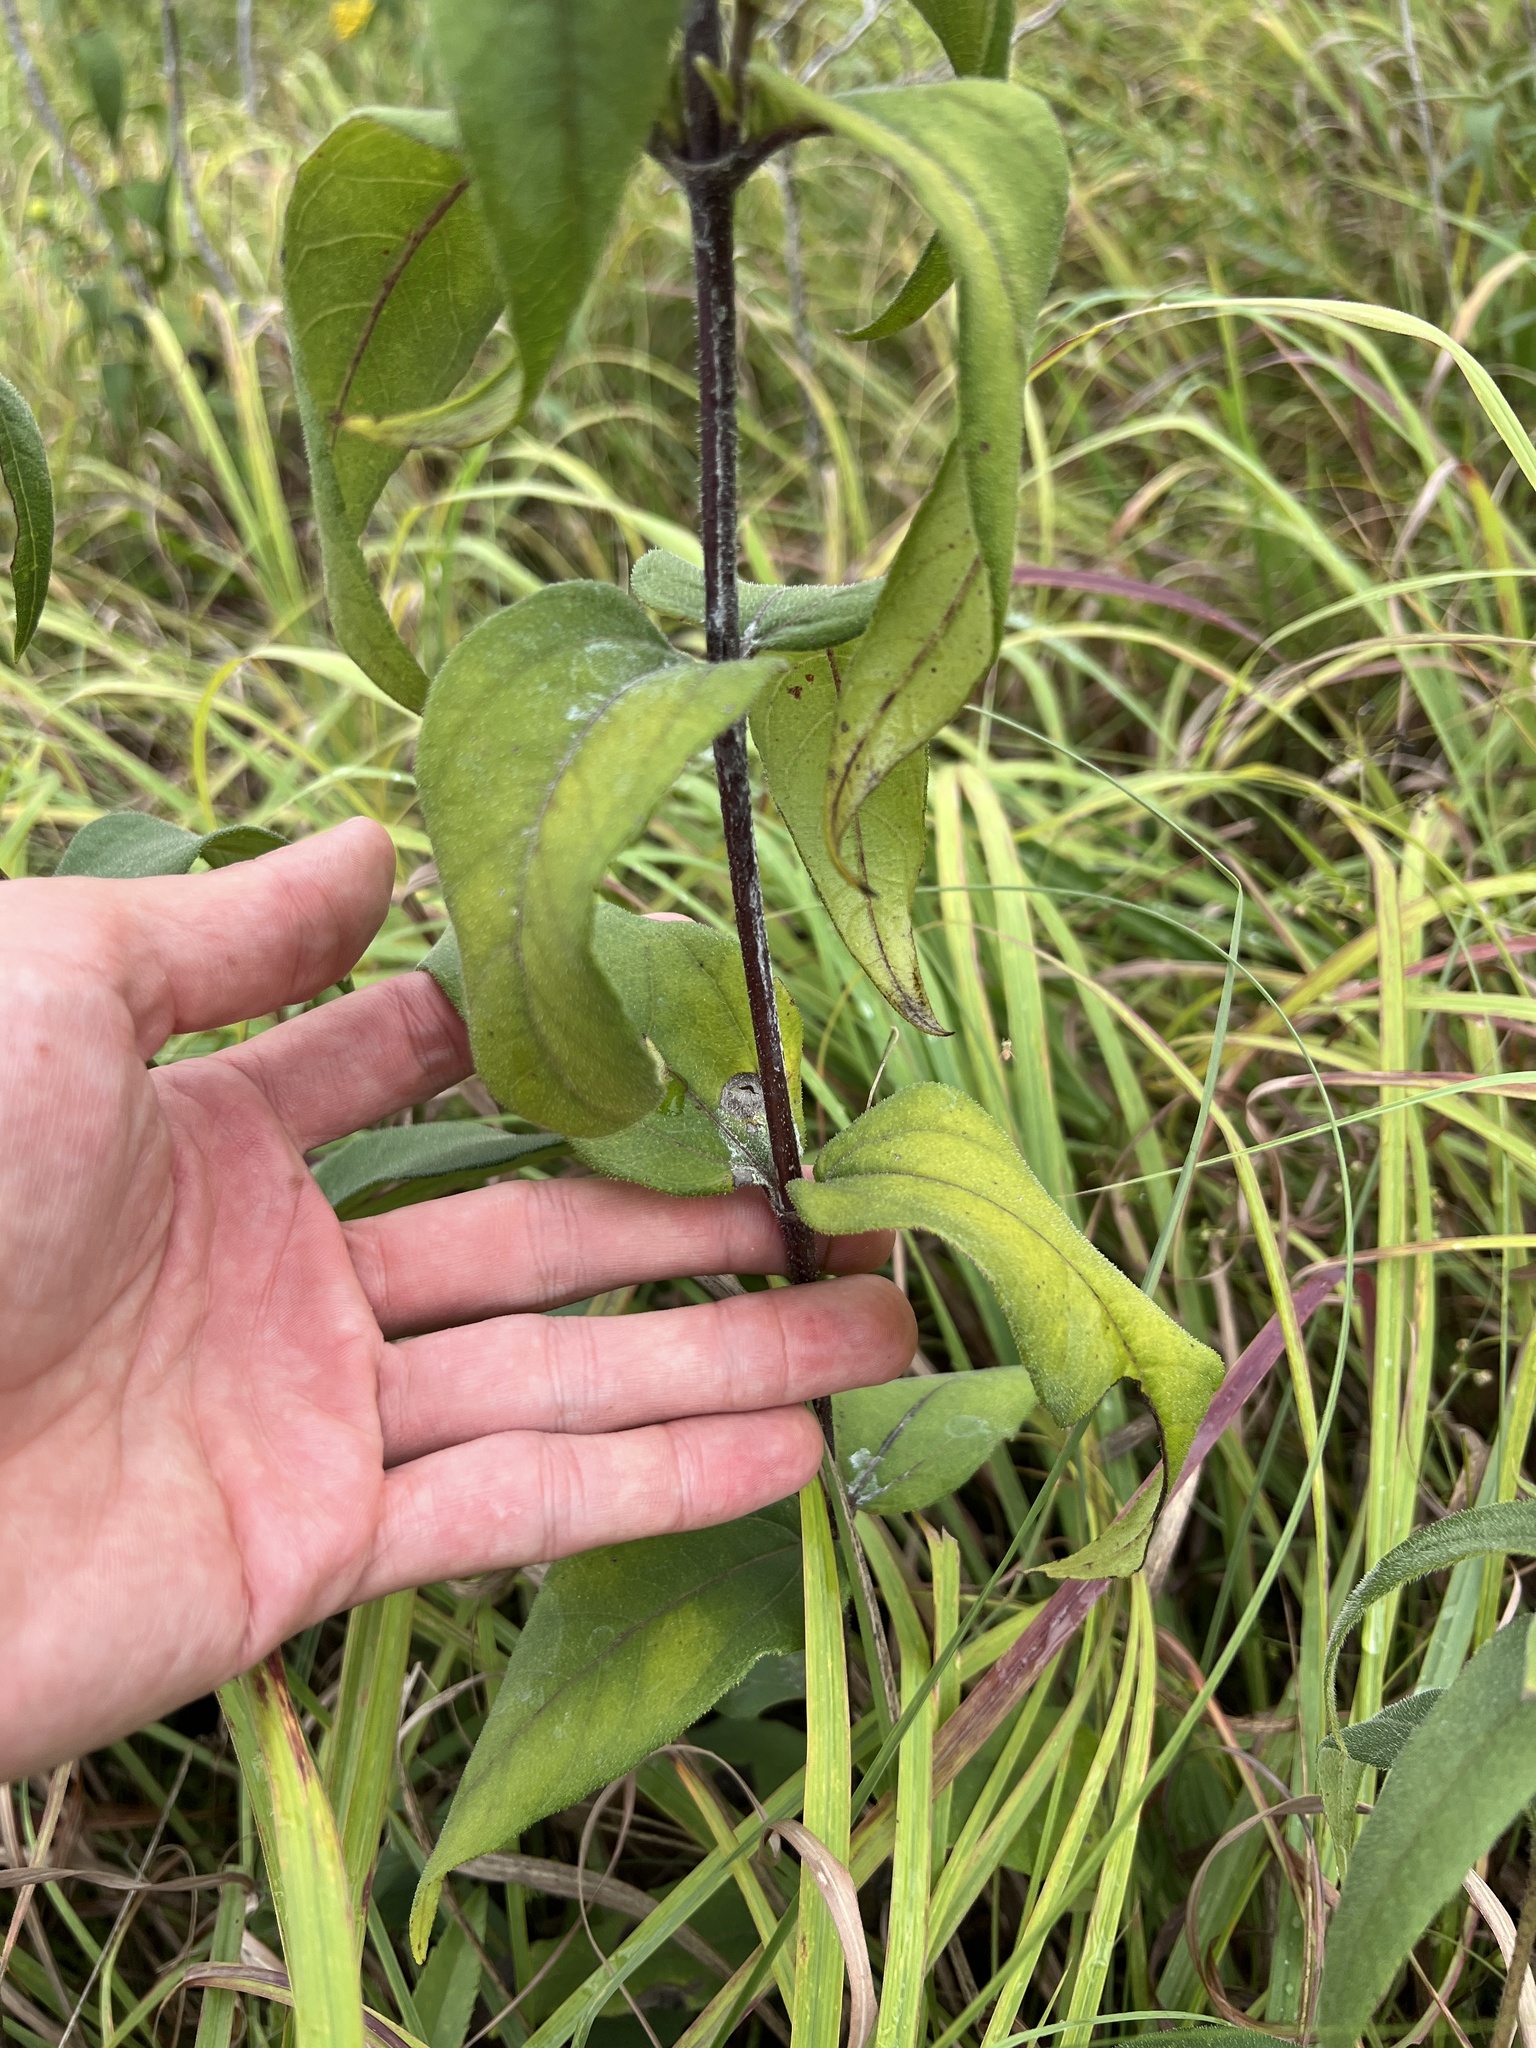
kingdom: Plantae
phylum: Tracheophyta
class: Magnoliopsida
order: Asterales
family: Asteraceae
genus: Helianthus
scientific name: Helianthus hirsutus
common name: Hairy sunflower
